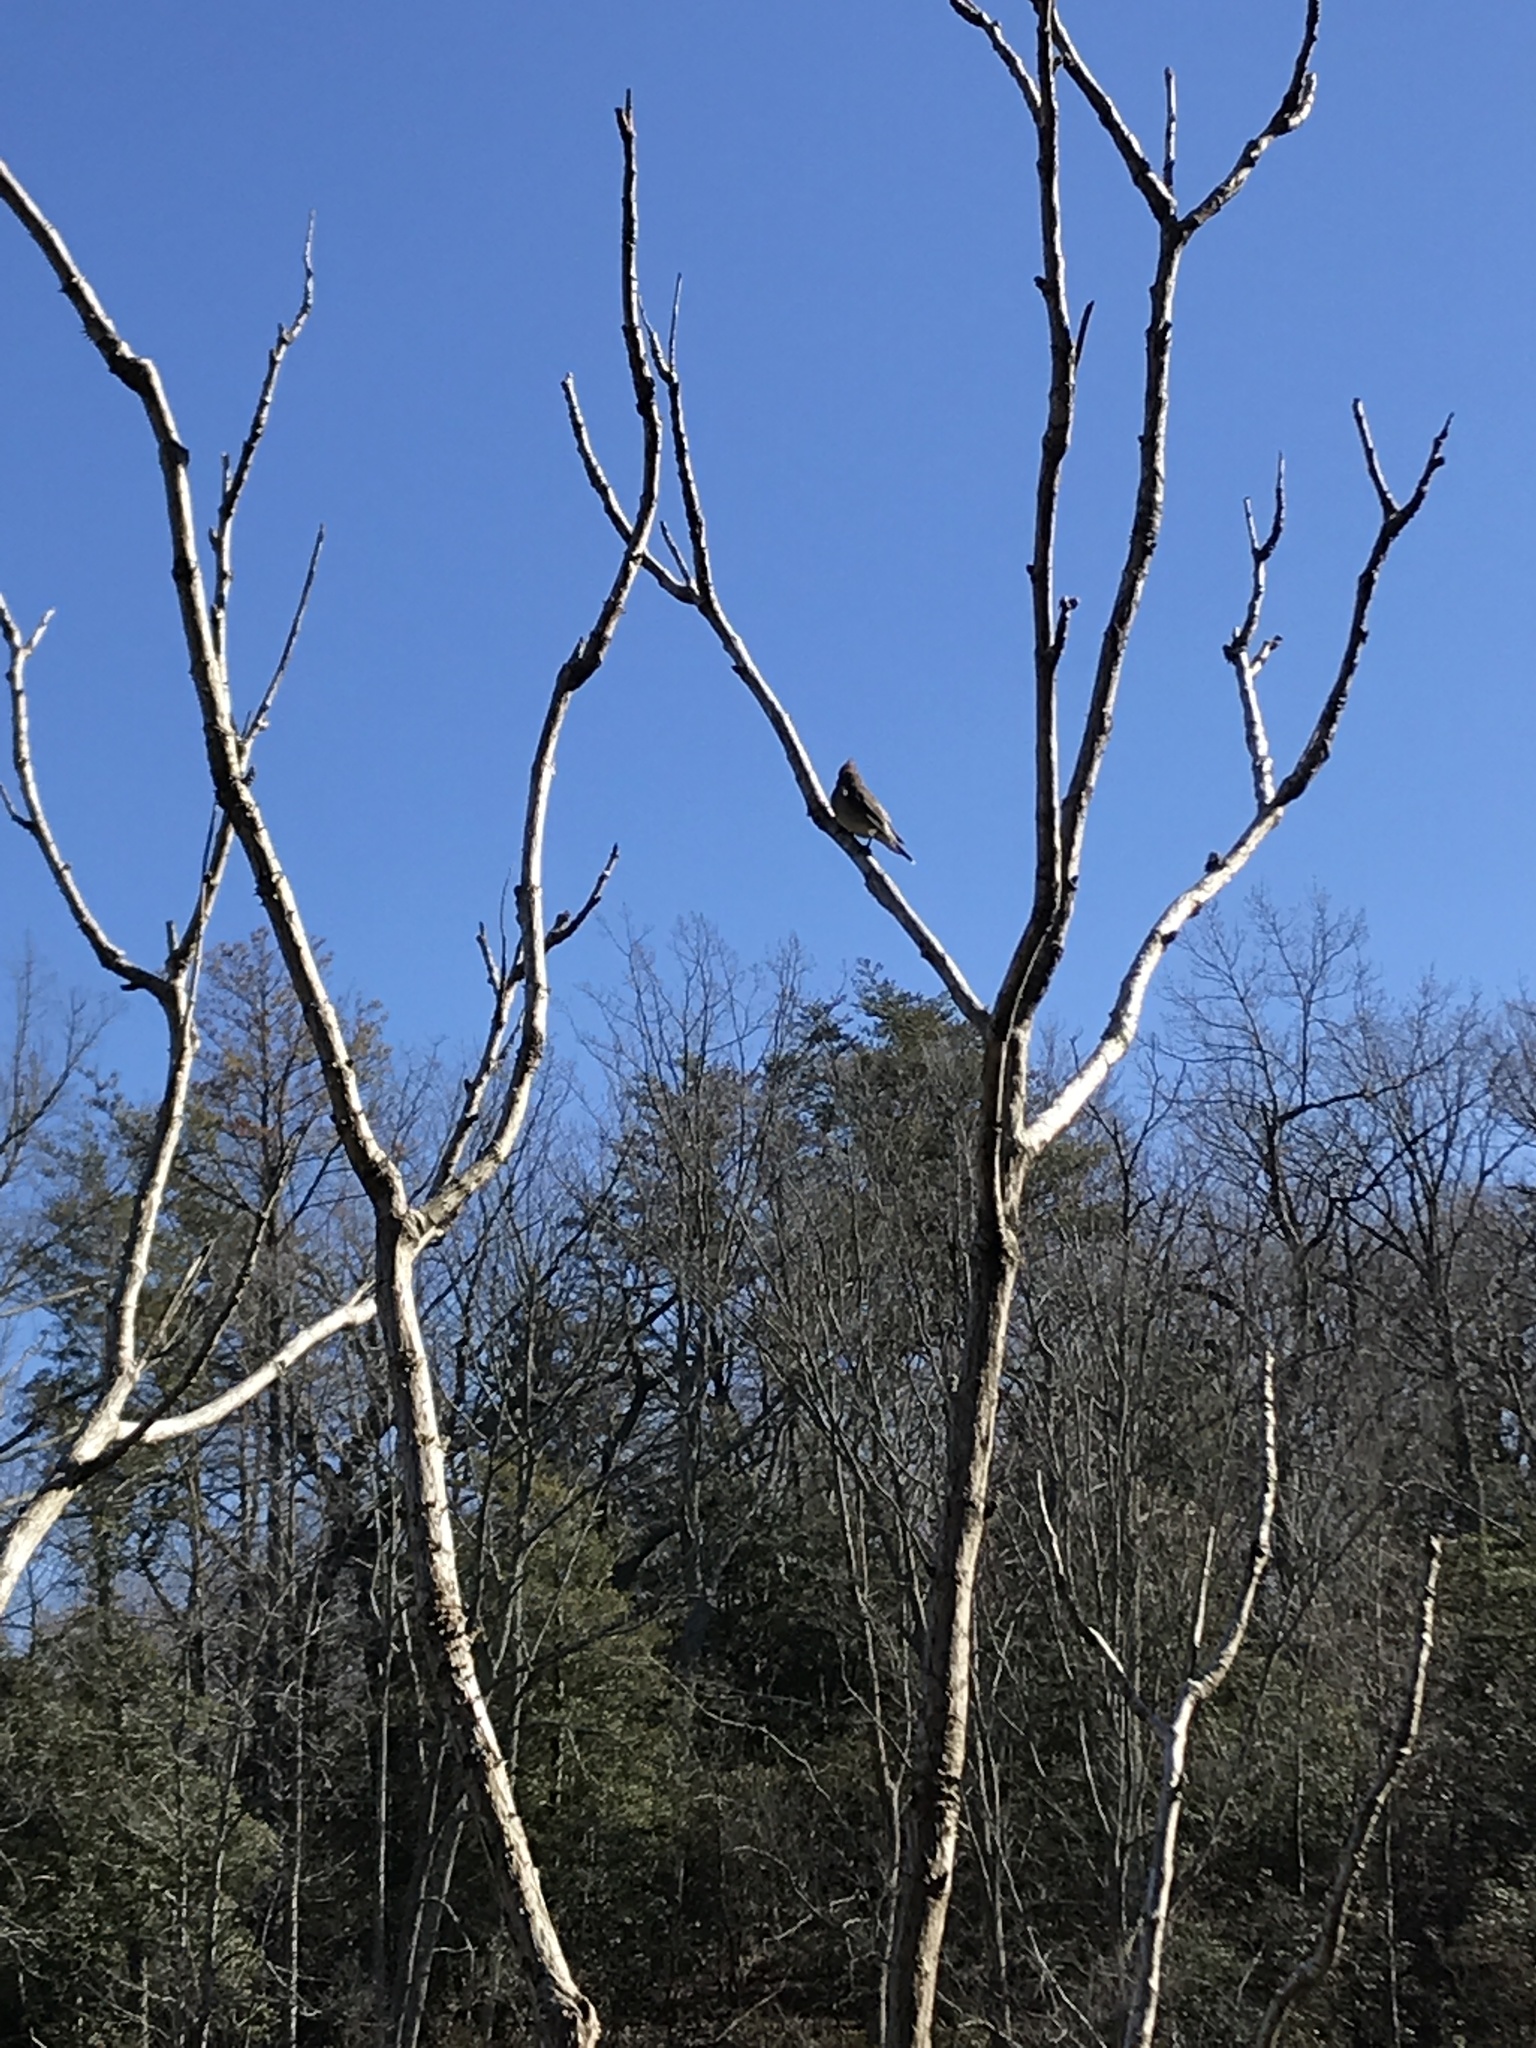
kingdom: Animalia
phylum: Chordata
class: Aves
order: Passeriformes
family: Bombycillidae
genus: Bombycilla
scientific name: Bombycilla cedrorum
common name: Cedar waxwing
